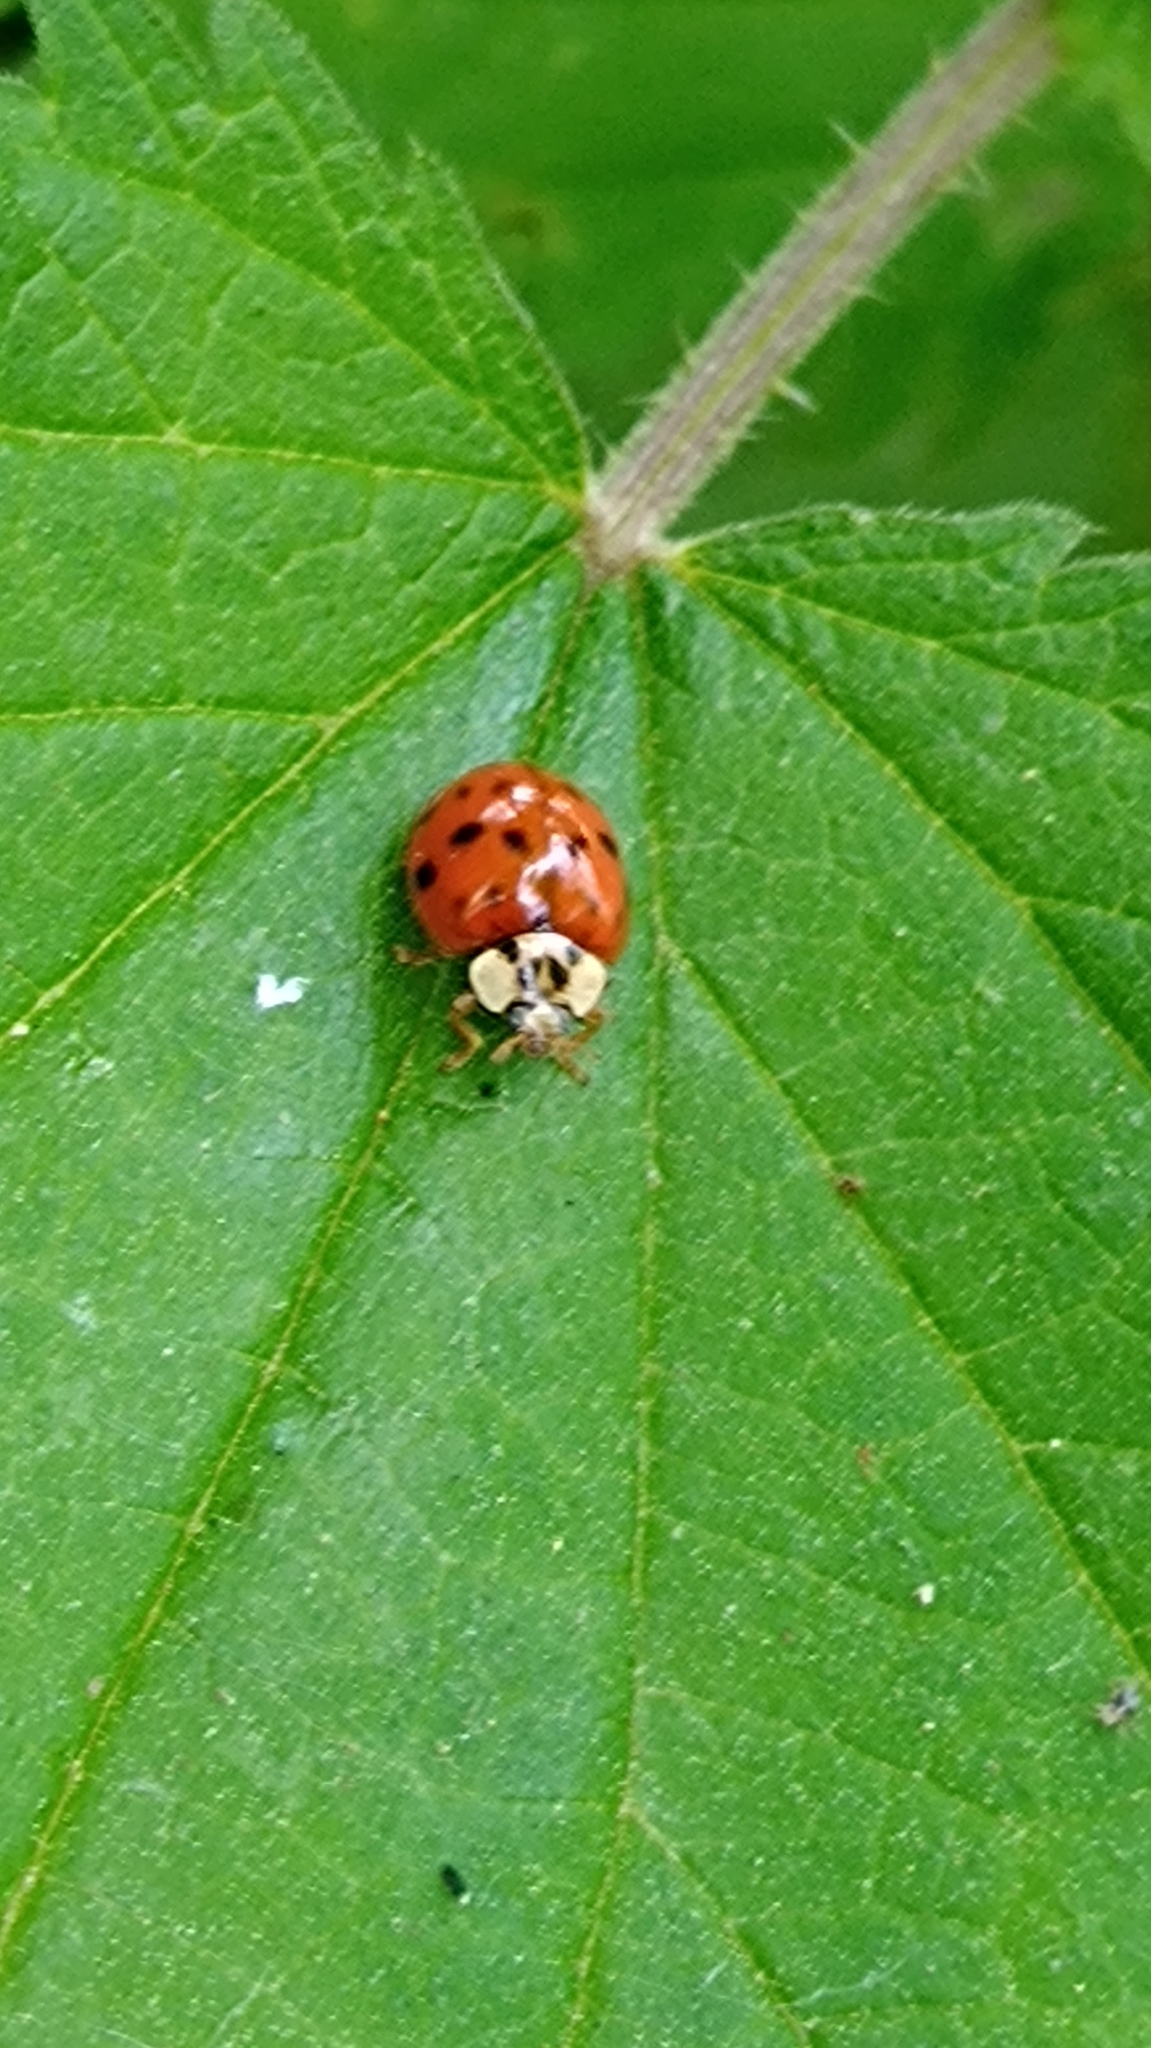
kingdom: Animalia
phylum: Arthropoda
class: Insecta
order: Coleoptera
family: Coccinellidae
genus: Harmonia
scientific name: Harmonia axyridis
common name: Harlequin ladybird
